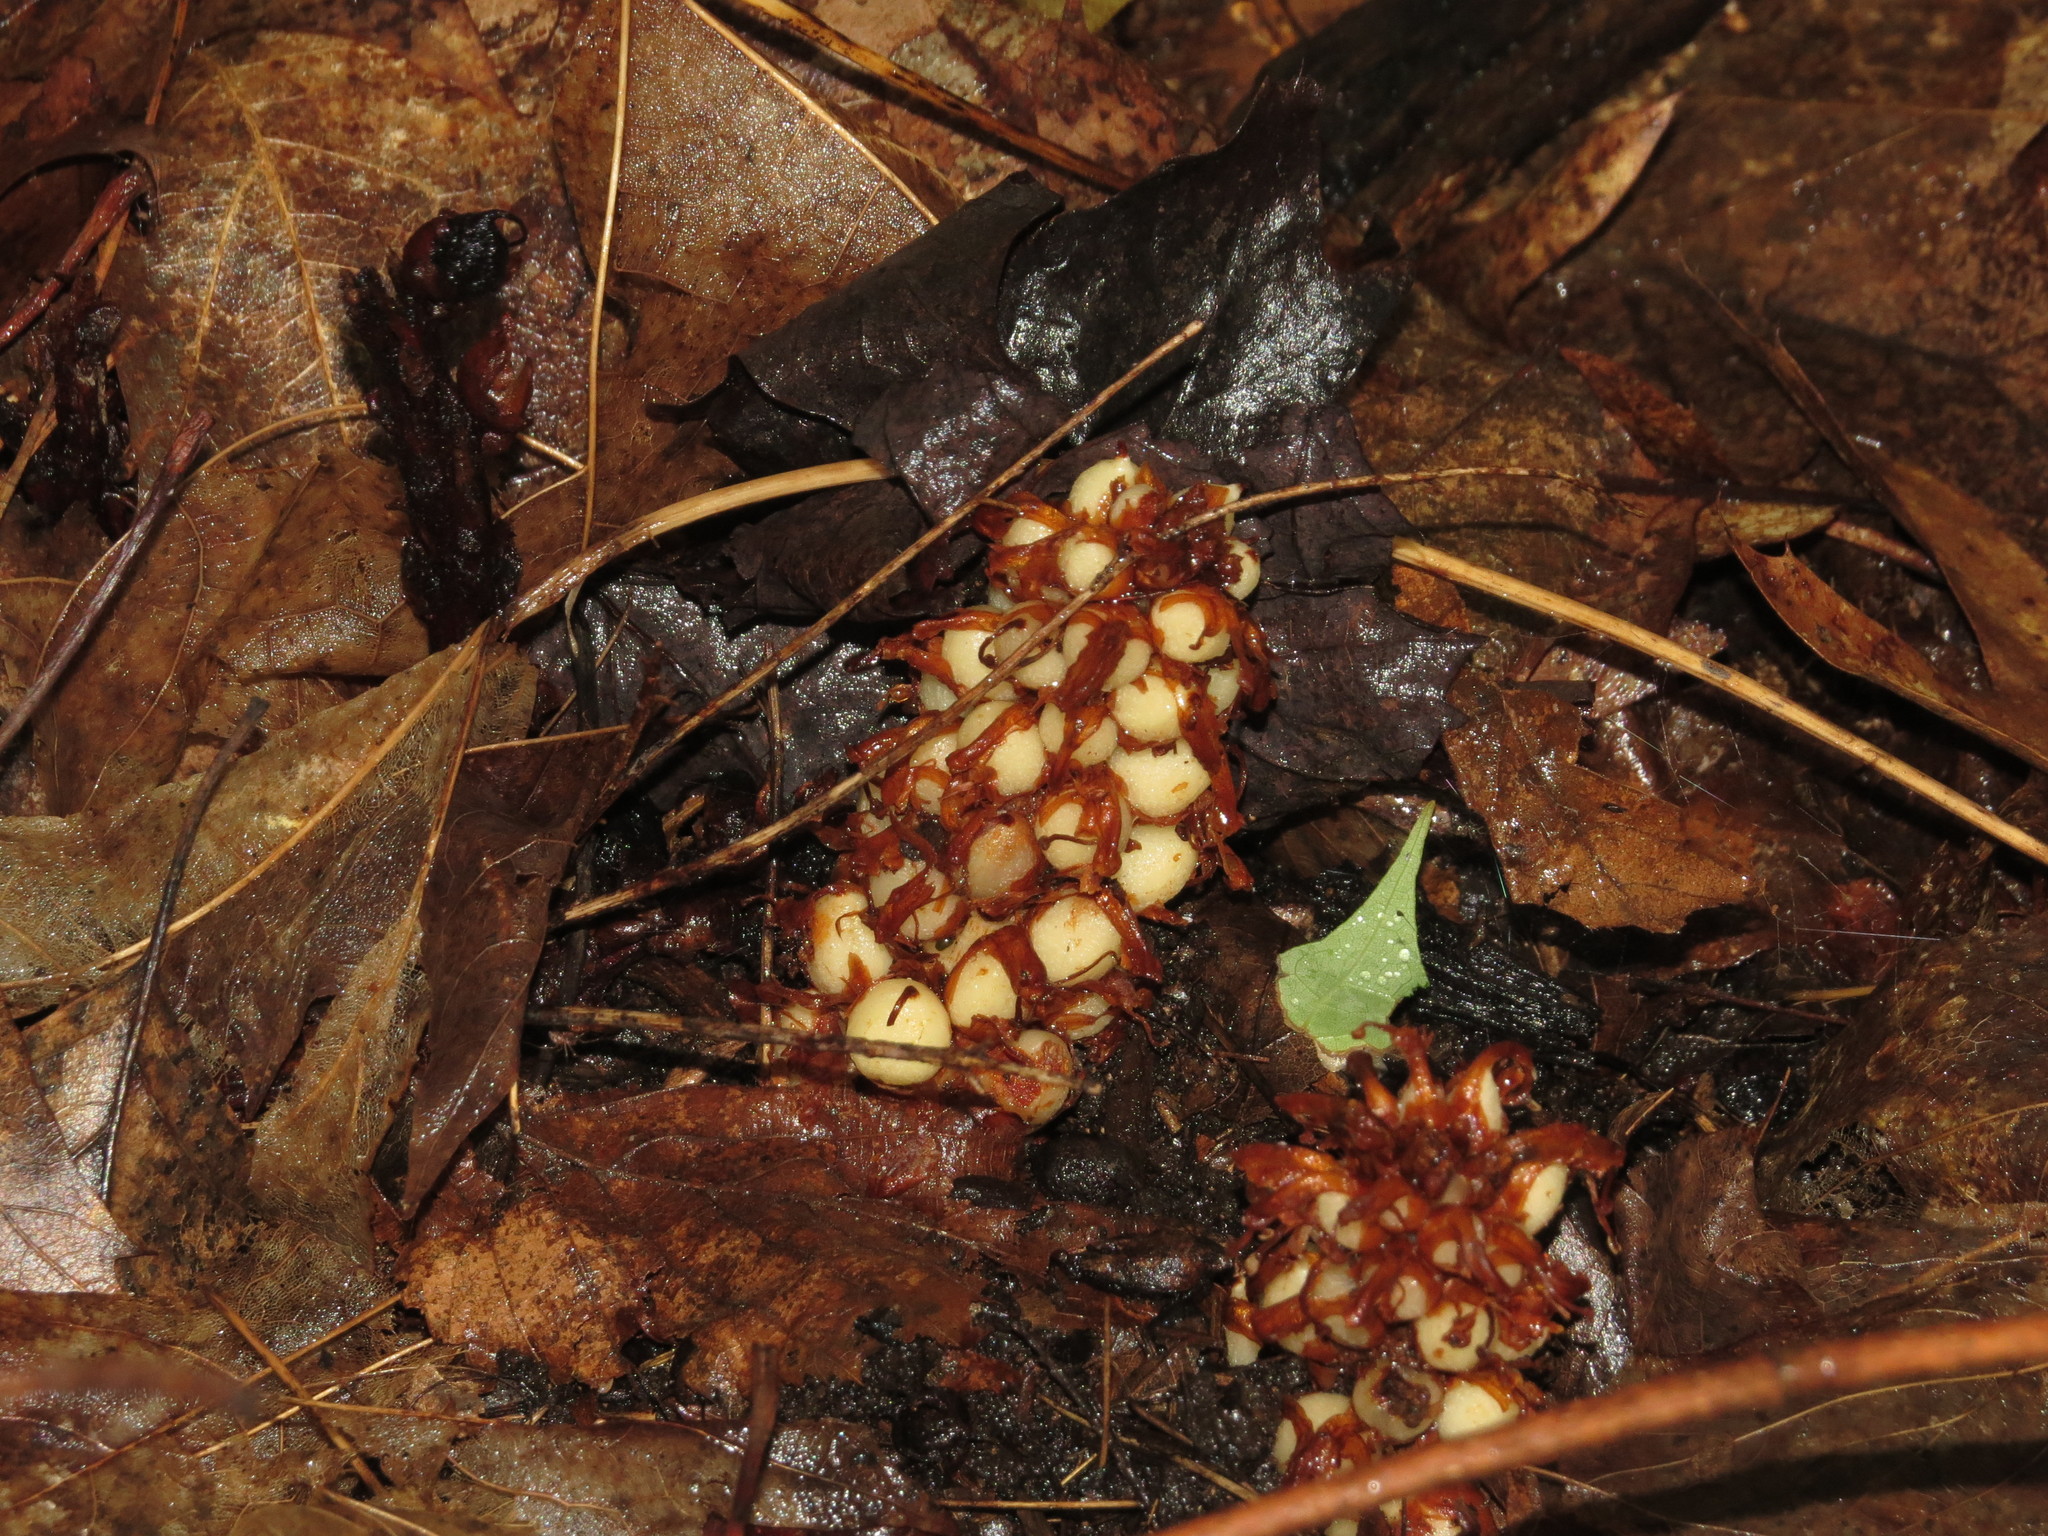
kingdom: Plantae
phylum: Tracheophyta
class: Magnoliopsida
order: Lamiales
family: Orobanchaceae
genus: Conopholis
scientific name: Conopholis americana
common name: American cancer-root
